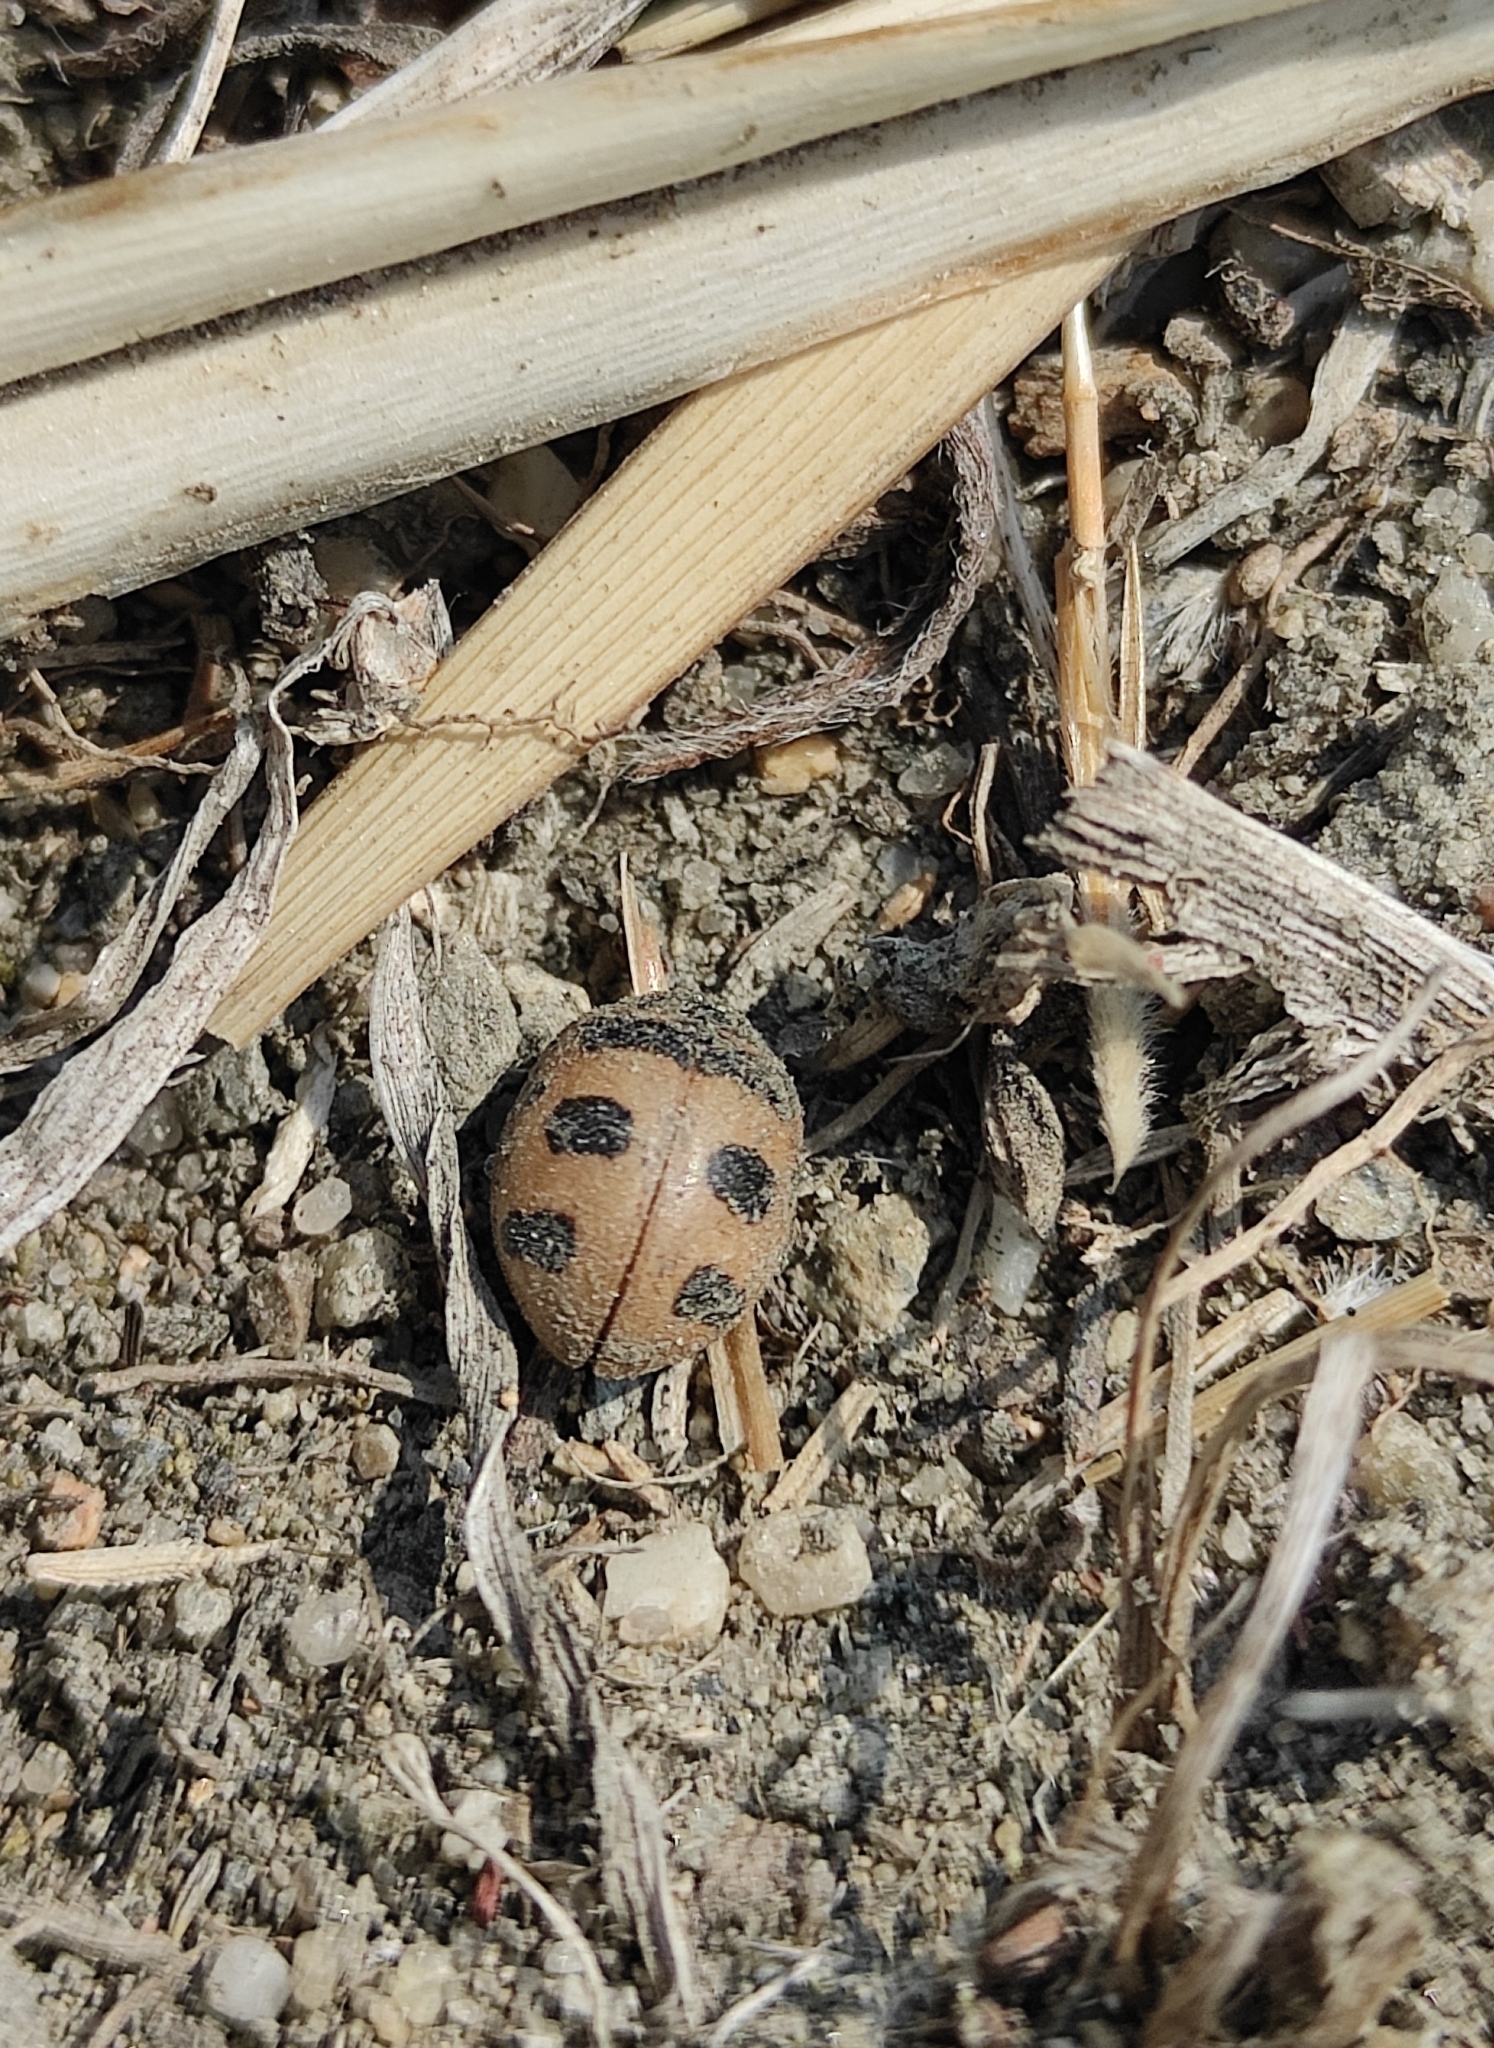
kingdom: Animalia
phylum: Arthropoda
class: Insecta
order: Coleoptera
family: Coccinellidae
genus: Coccinella
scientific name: Coccinella transversoguttata
